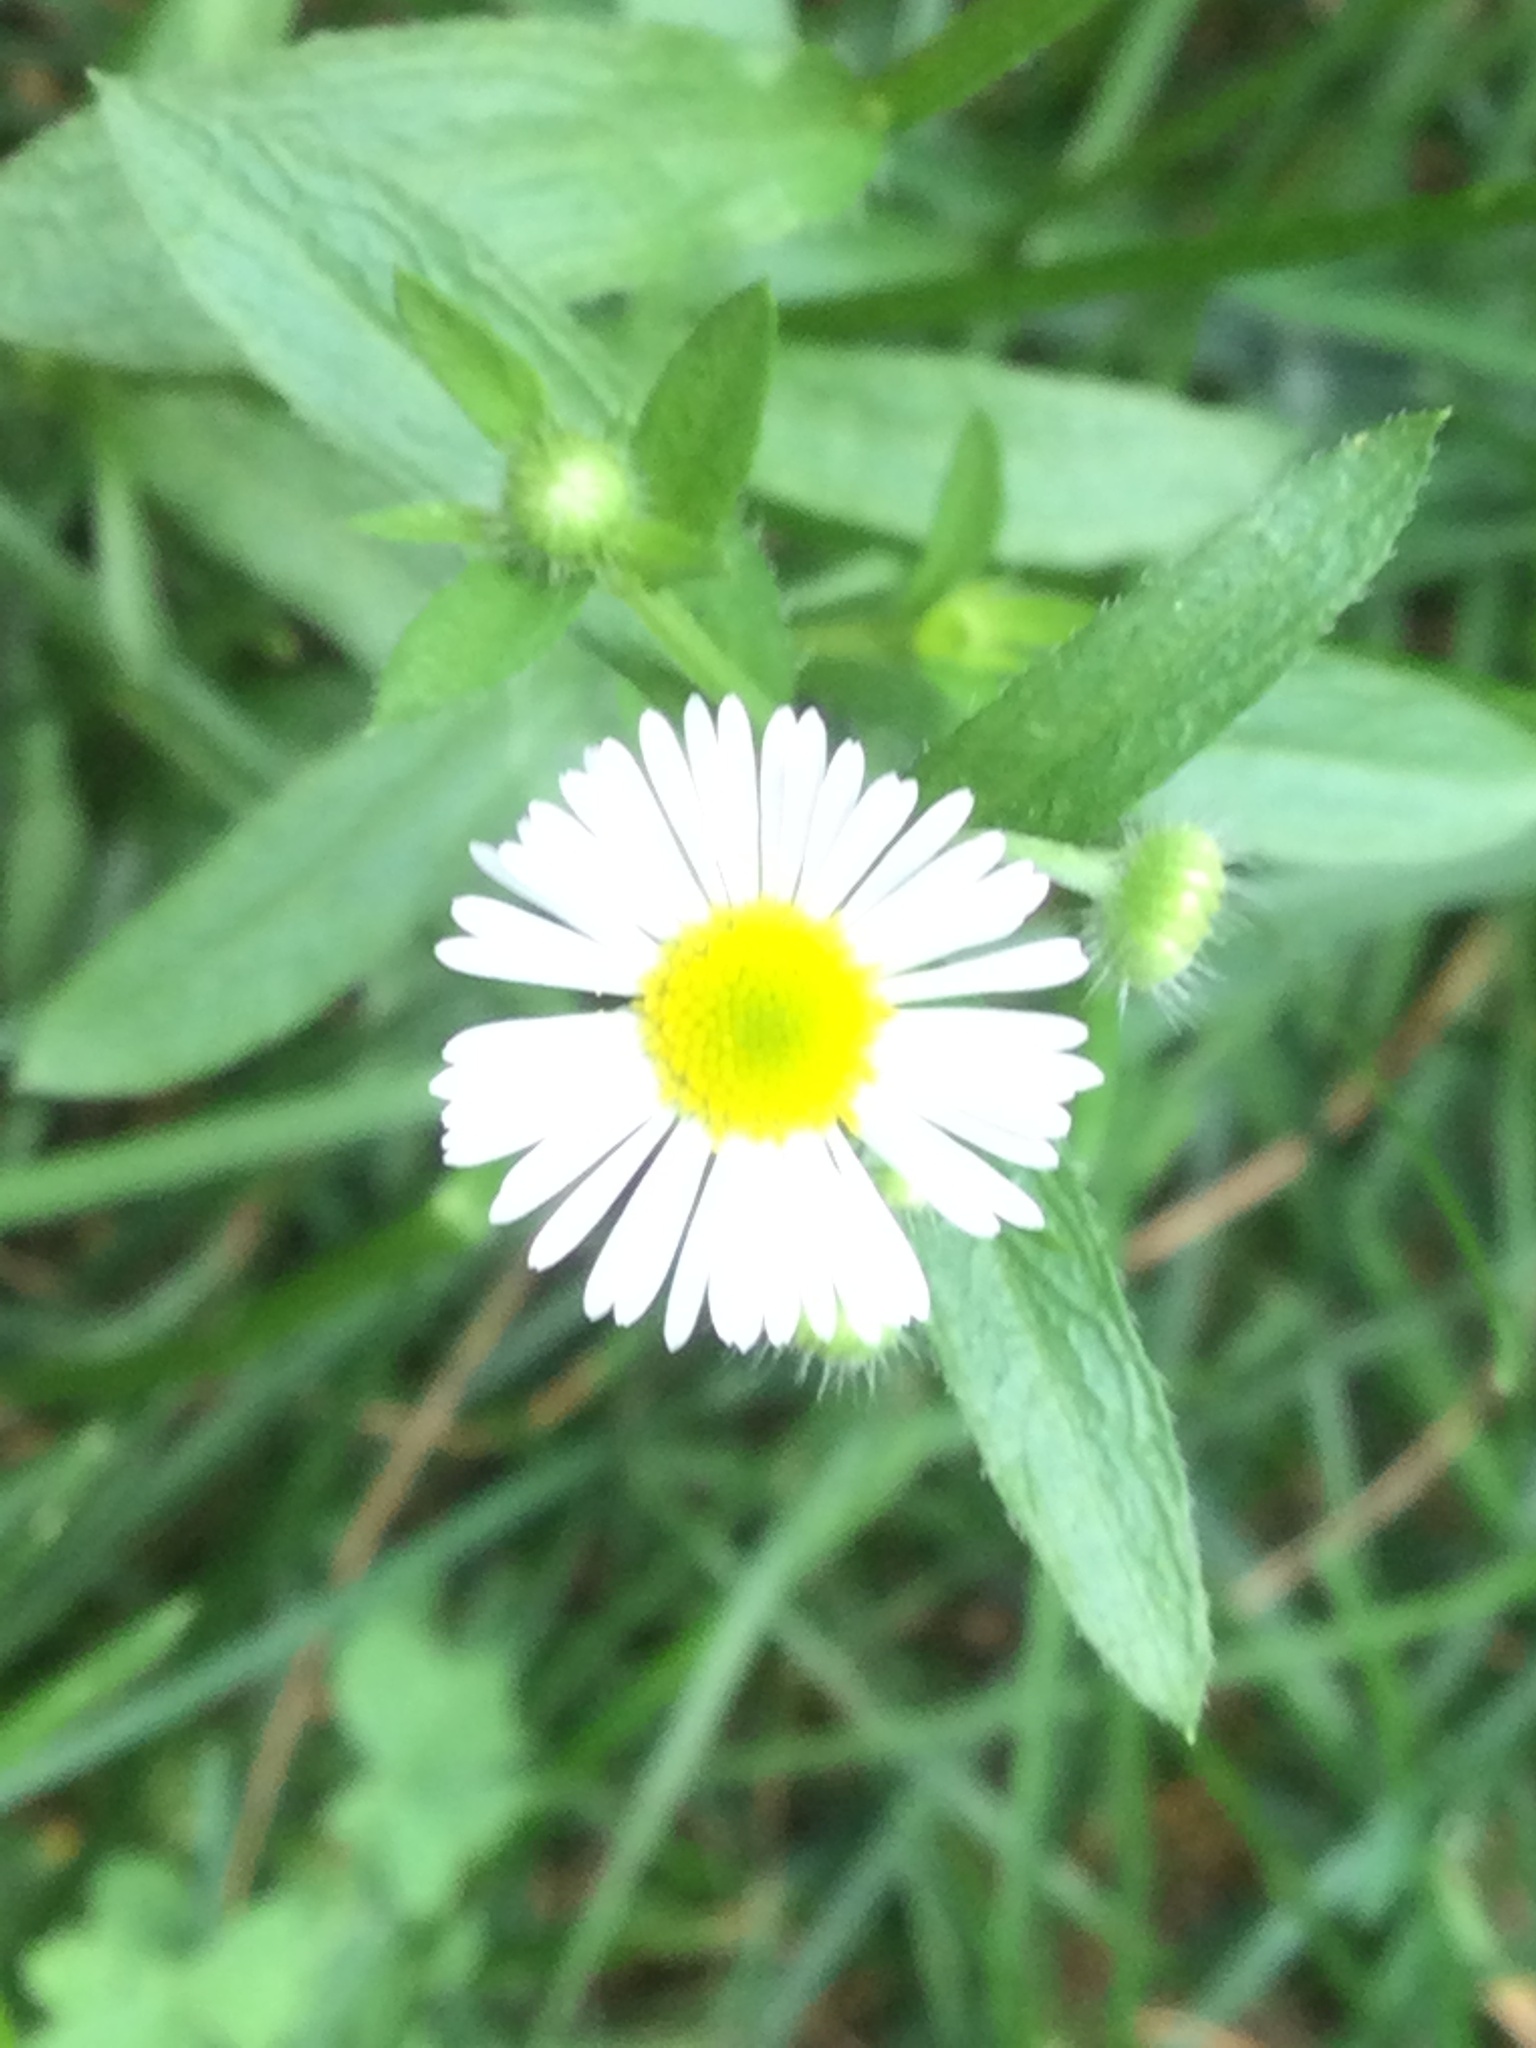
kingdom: Plantae
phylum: Tracheophyta
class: Magnoliopsida
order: Asterales
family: Asteraceae
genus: Erigeron
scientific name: Erigeron strigosus
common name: Common eastern fleabane
